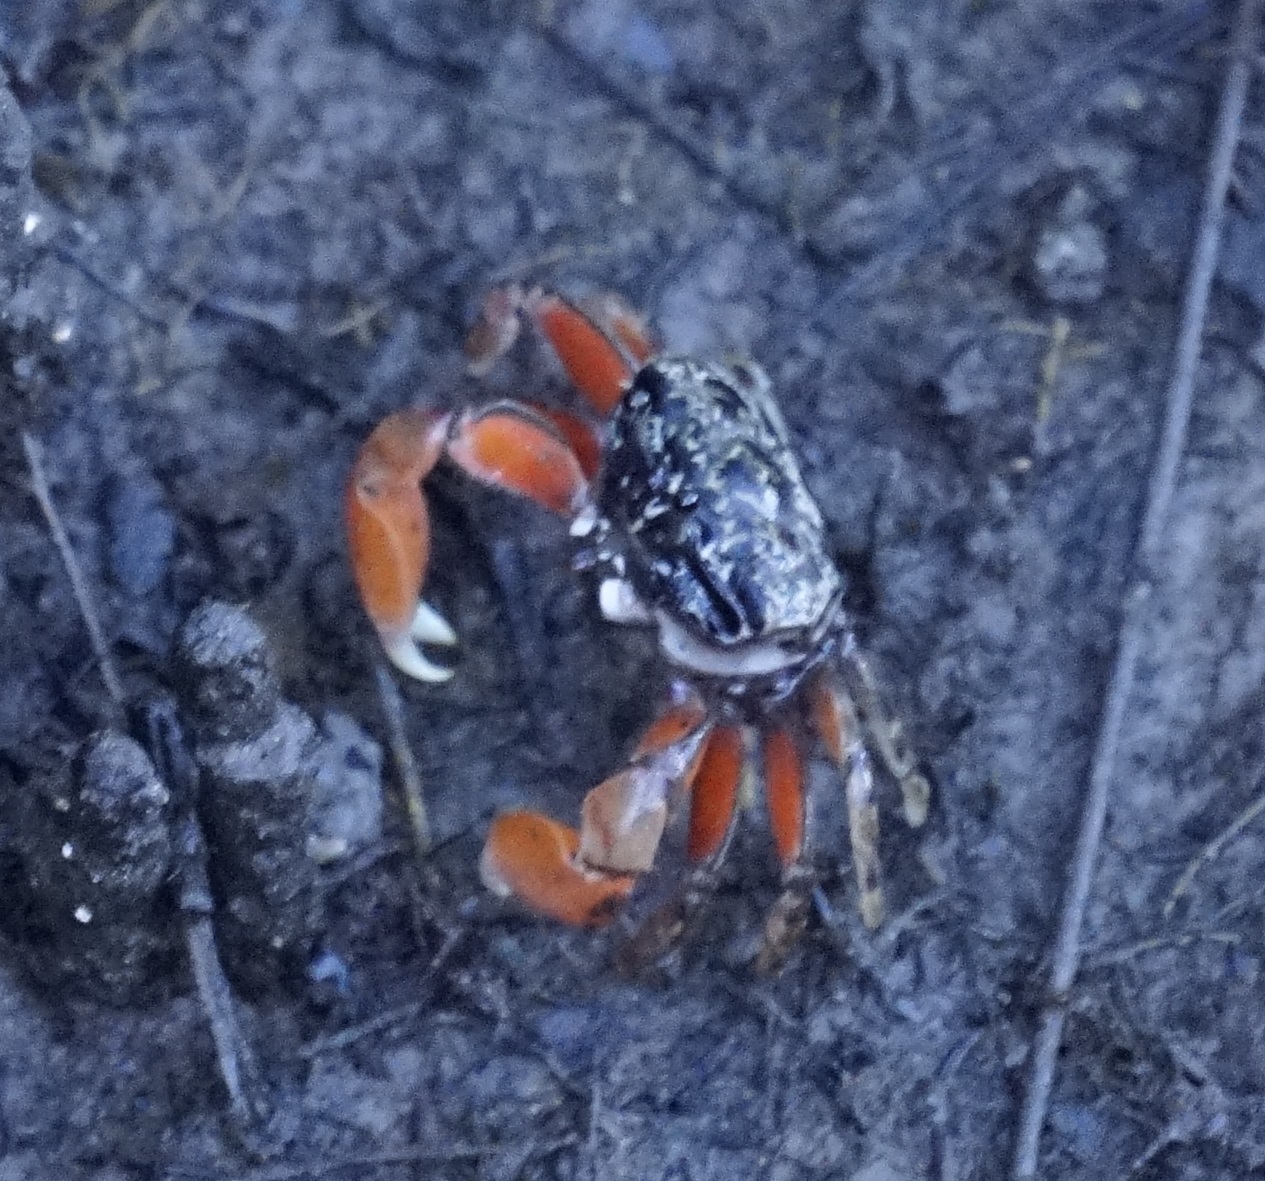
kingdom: Animalia
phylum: Arthropoda
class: Malacostraca
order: Decapoda
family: Heloeciidae
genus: Heloecius
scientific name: Heloecius cordiformis
